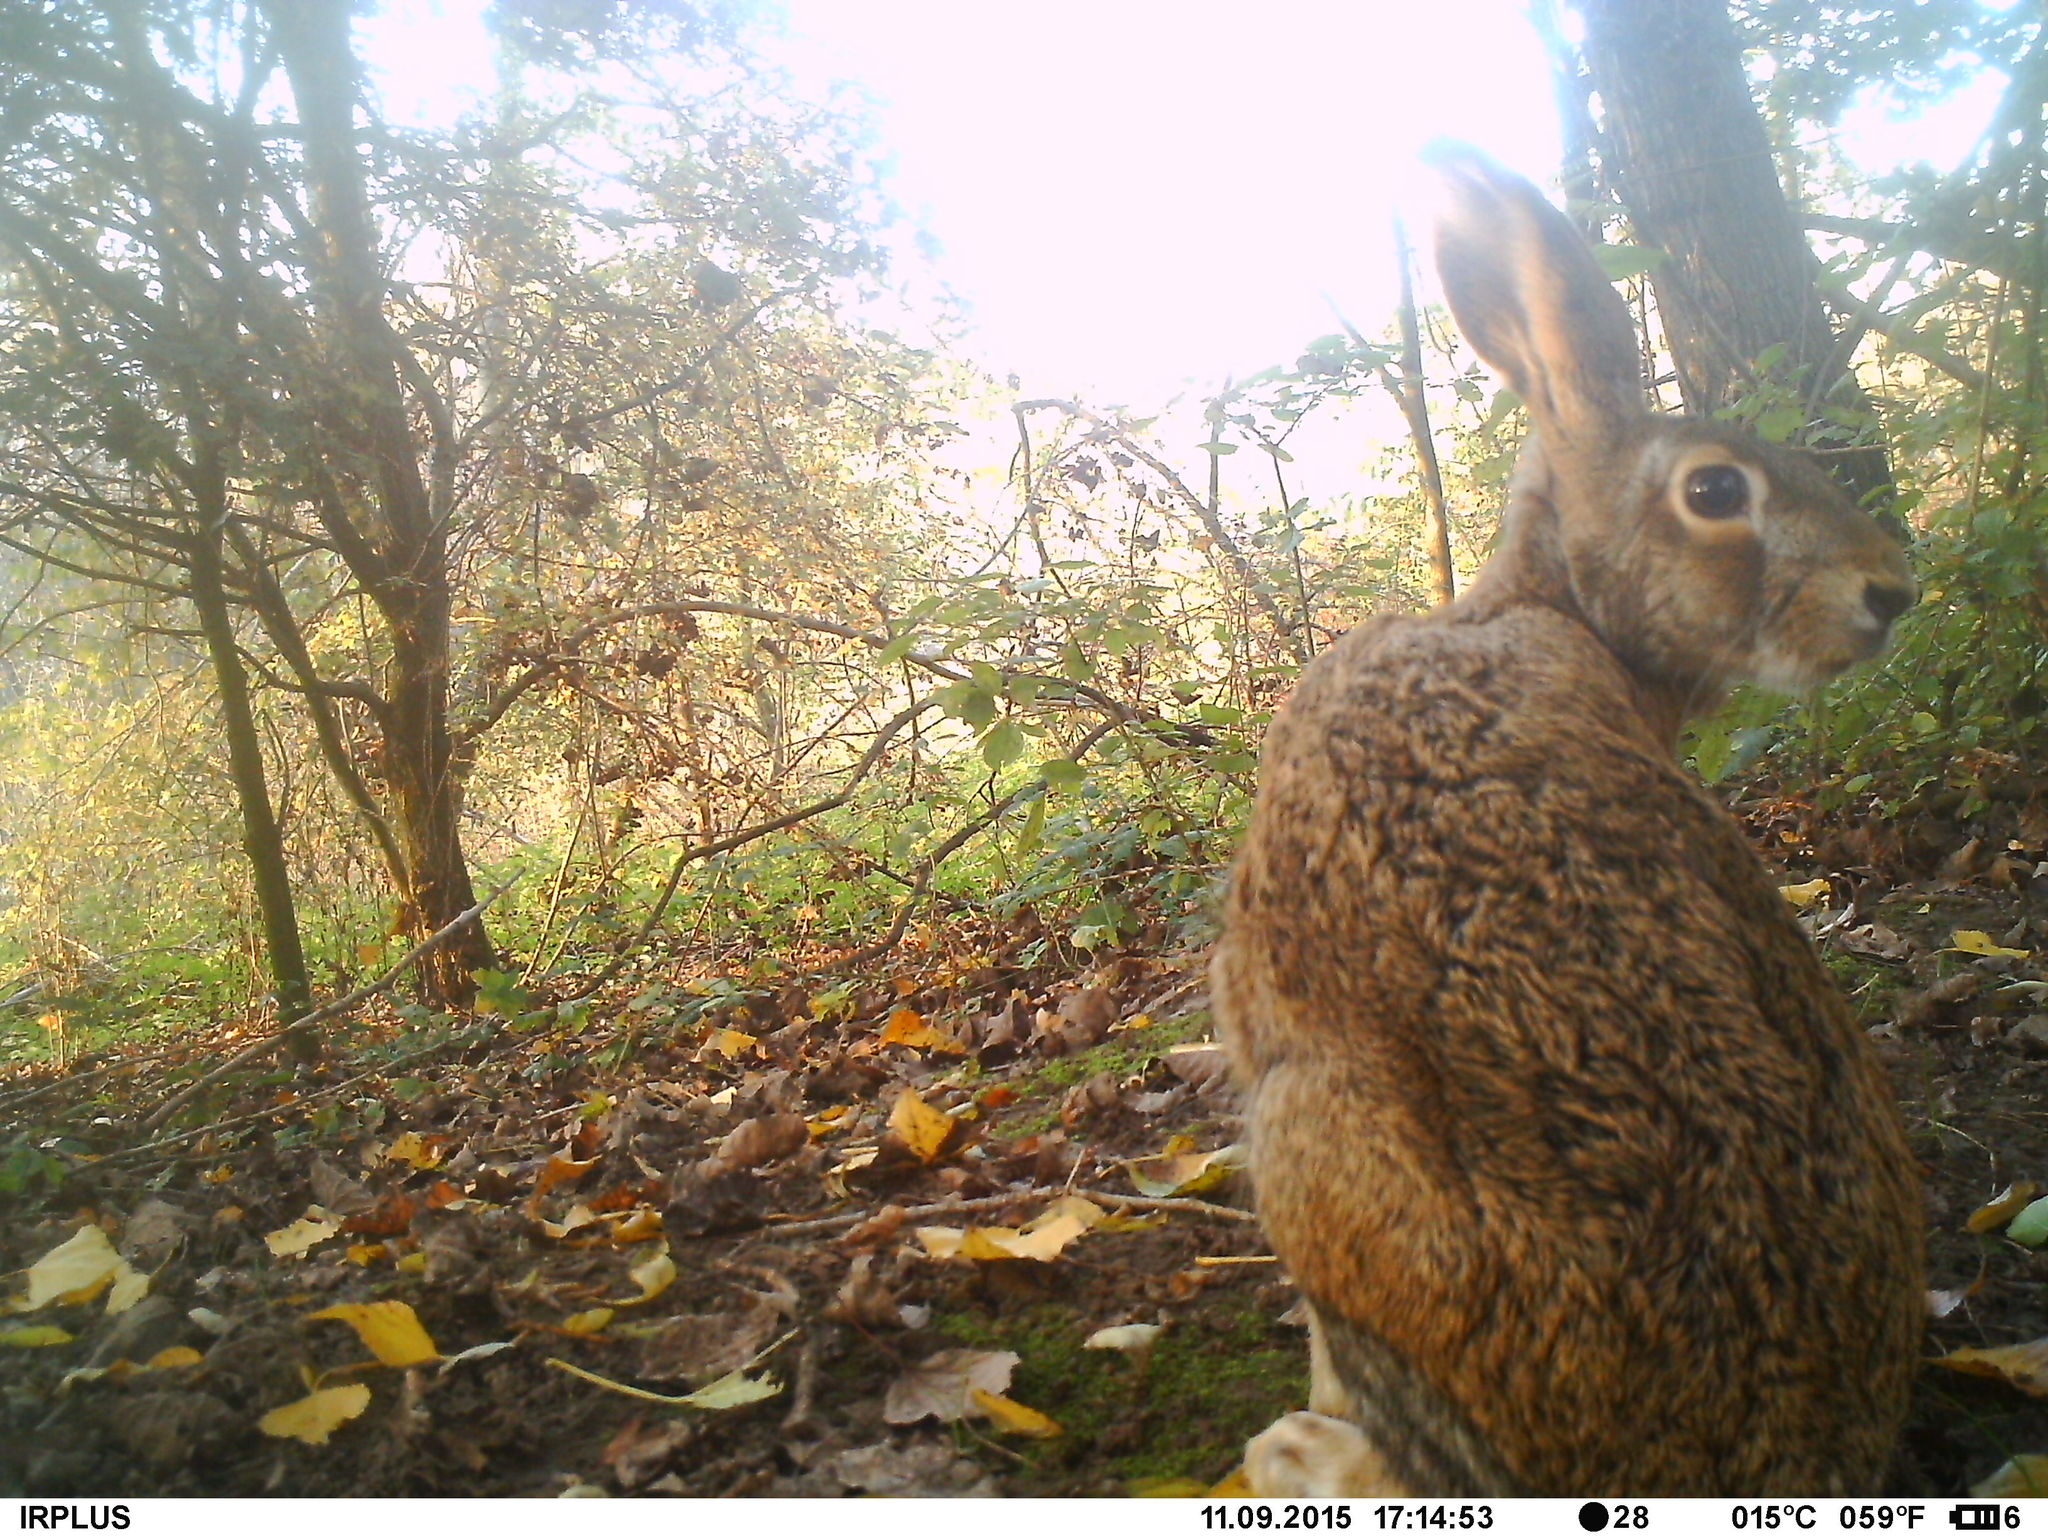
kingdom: Animalia
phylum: Chordata
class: Mammalia
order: Lagomorpha
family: Leporidae
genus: Lepus
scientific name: Lepus europaeus
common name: European hare
